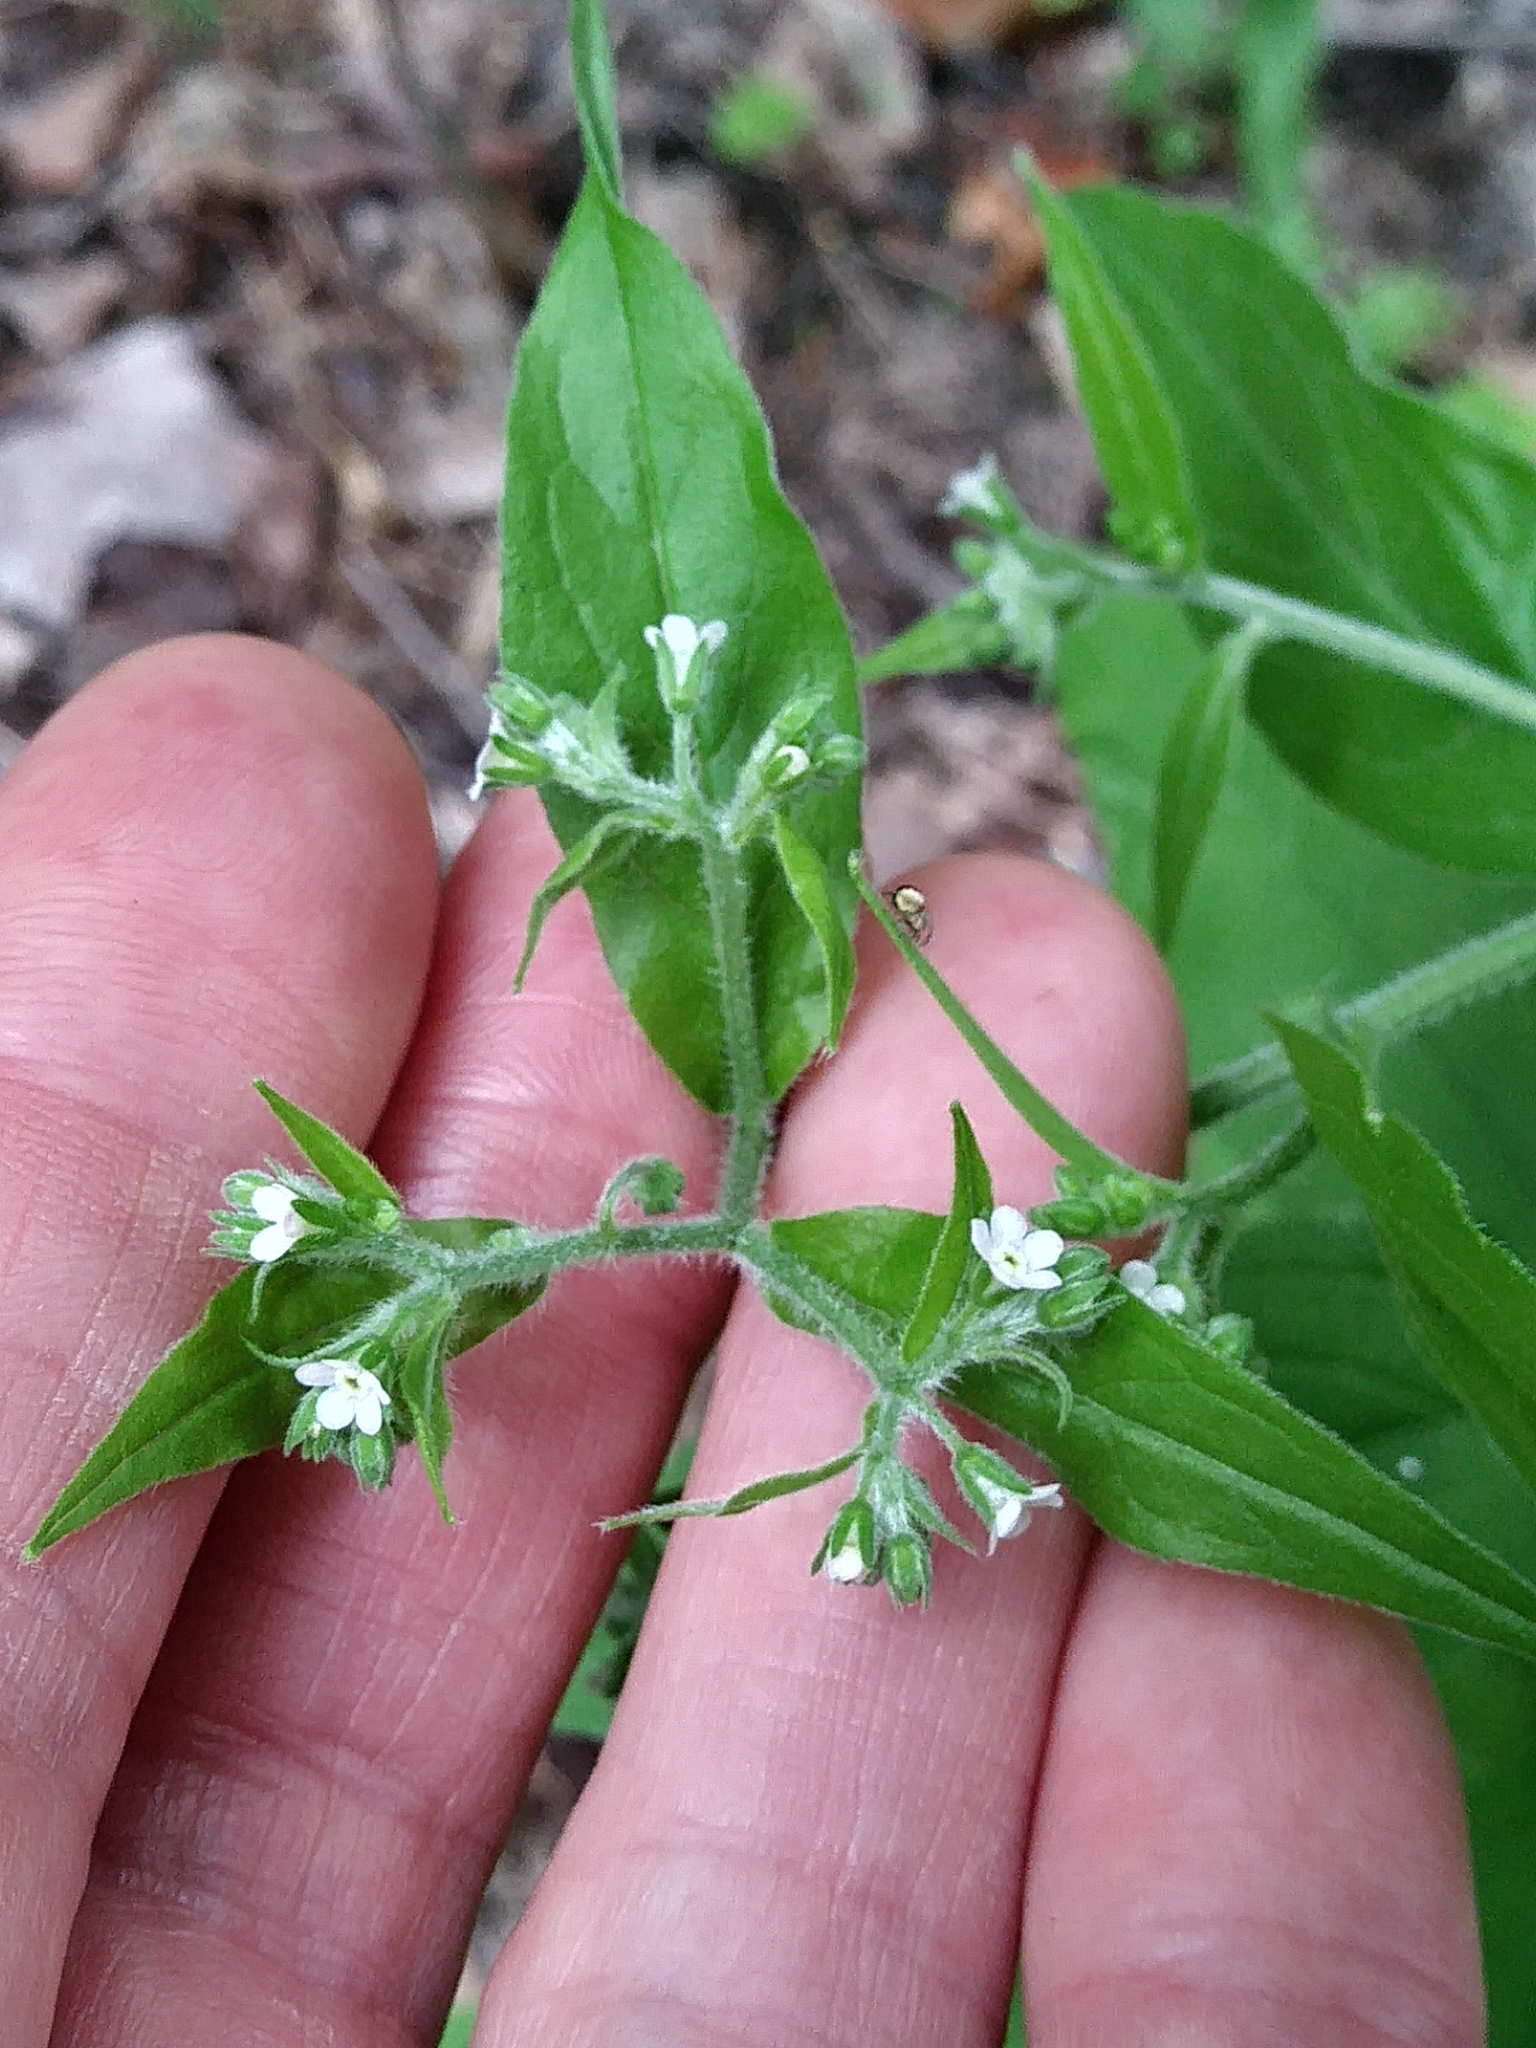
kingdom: Plantae
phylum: Tracheophyta
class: Magnoliopsida
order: Boraginales
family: Boraginaceae
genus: Hackelia
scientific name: Hackelia virginiana
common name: Beggar's-lice
